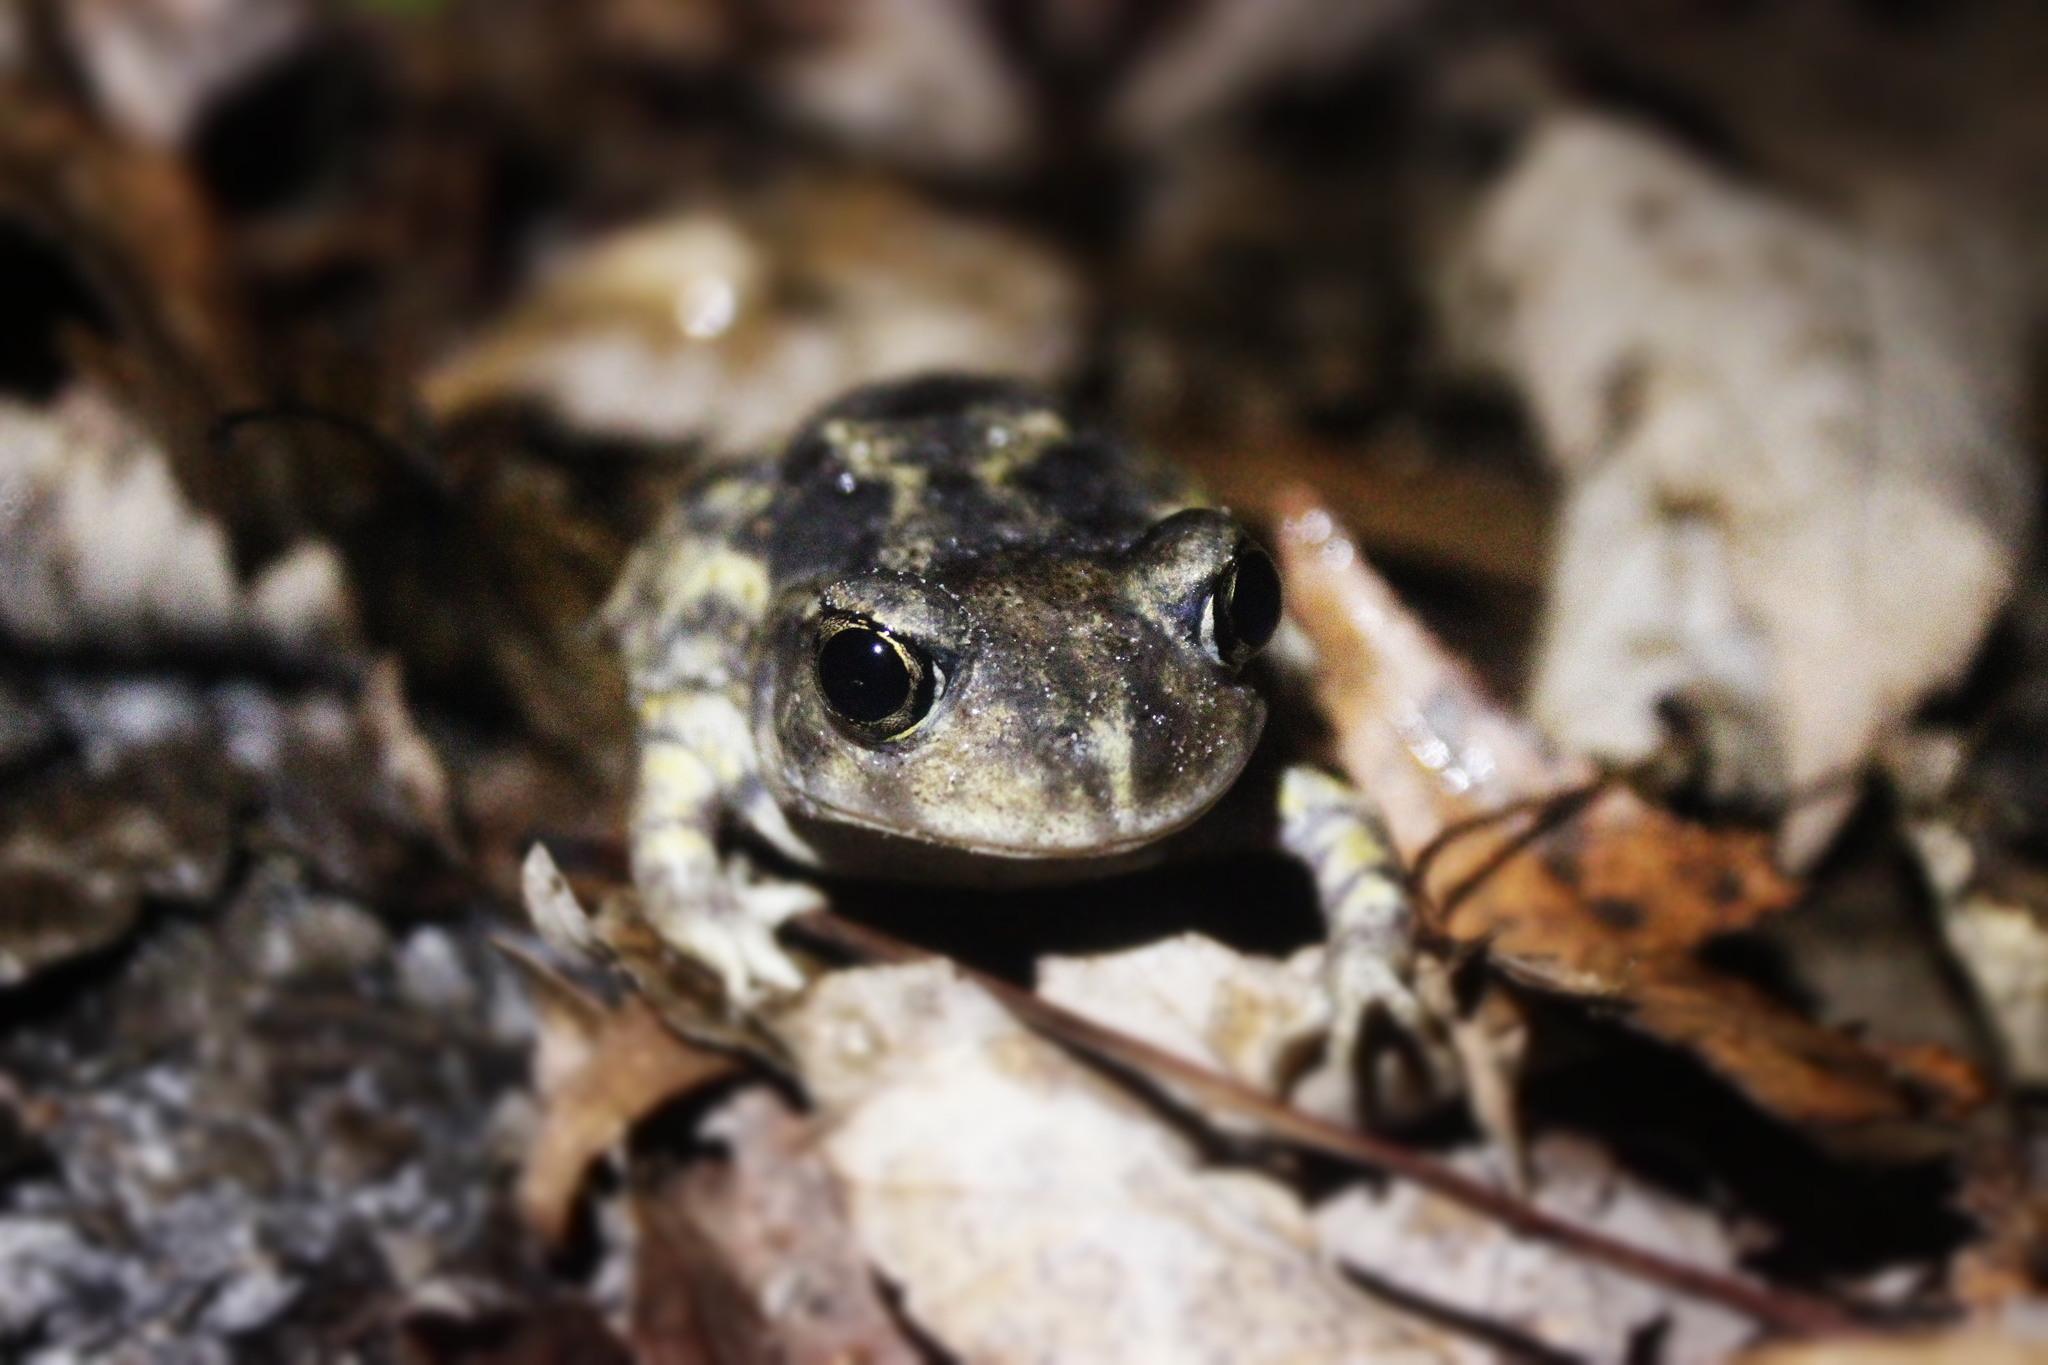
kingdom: Animalia
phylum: Chordata
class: Amphibia
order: Anura
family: Scaphiopodidae
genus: Scaphiopus
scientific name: Scaphiopus holbrookii
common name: Eastern spadefoot toad
